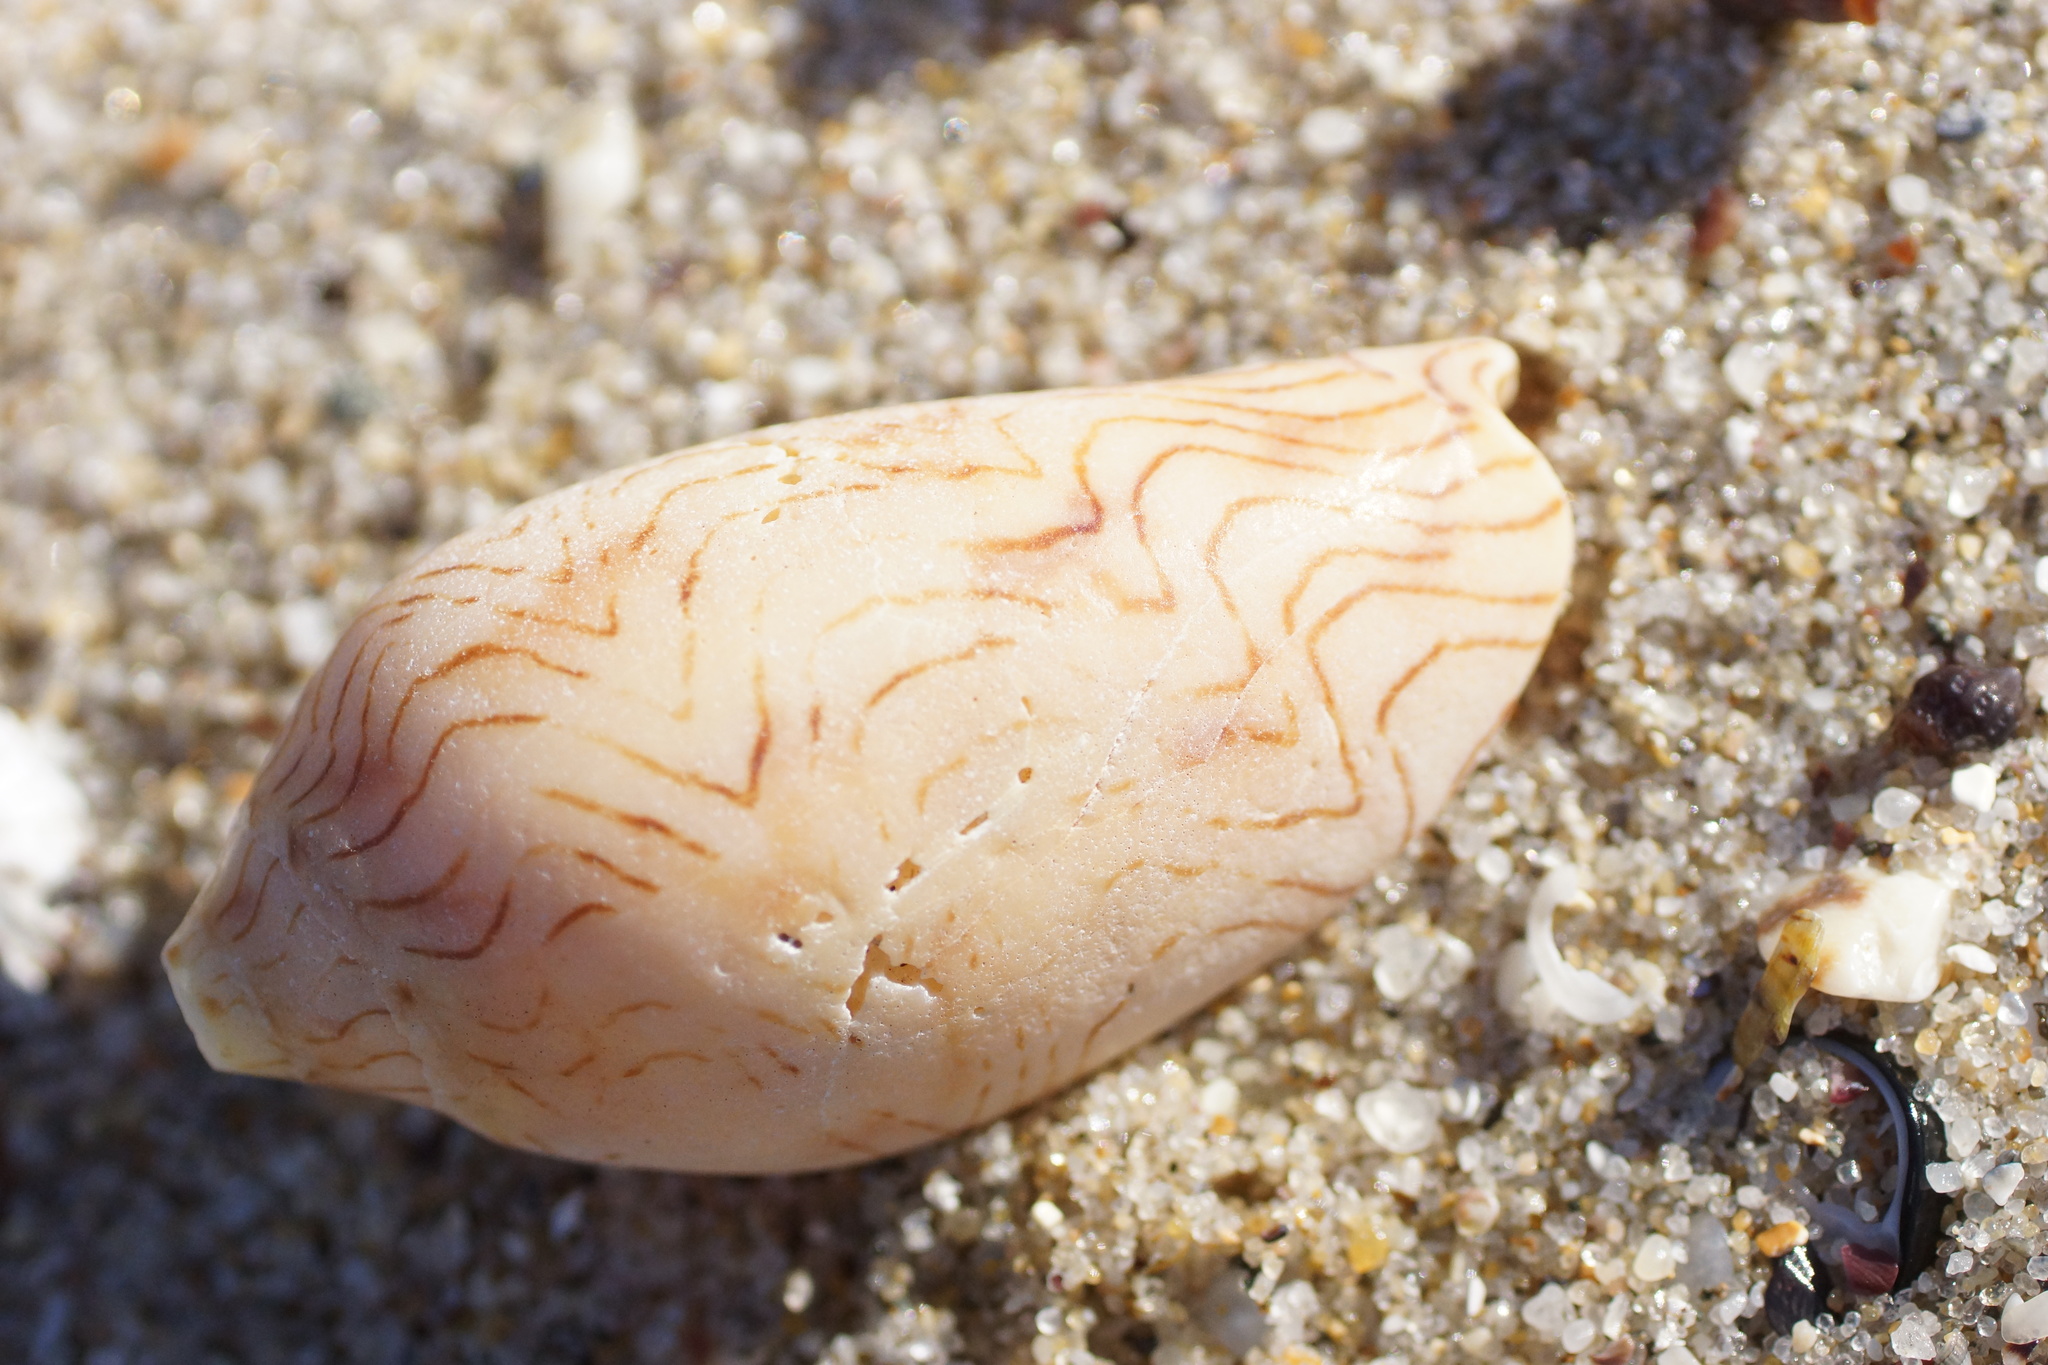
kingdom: Animalia
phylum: Mollusca
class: Gastropoda
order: Neogastropoda
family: Volutidae
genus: Amoria
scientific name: Amoria undulata
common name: Waved volute
